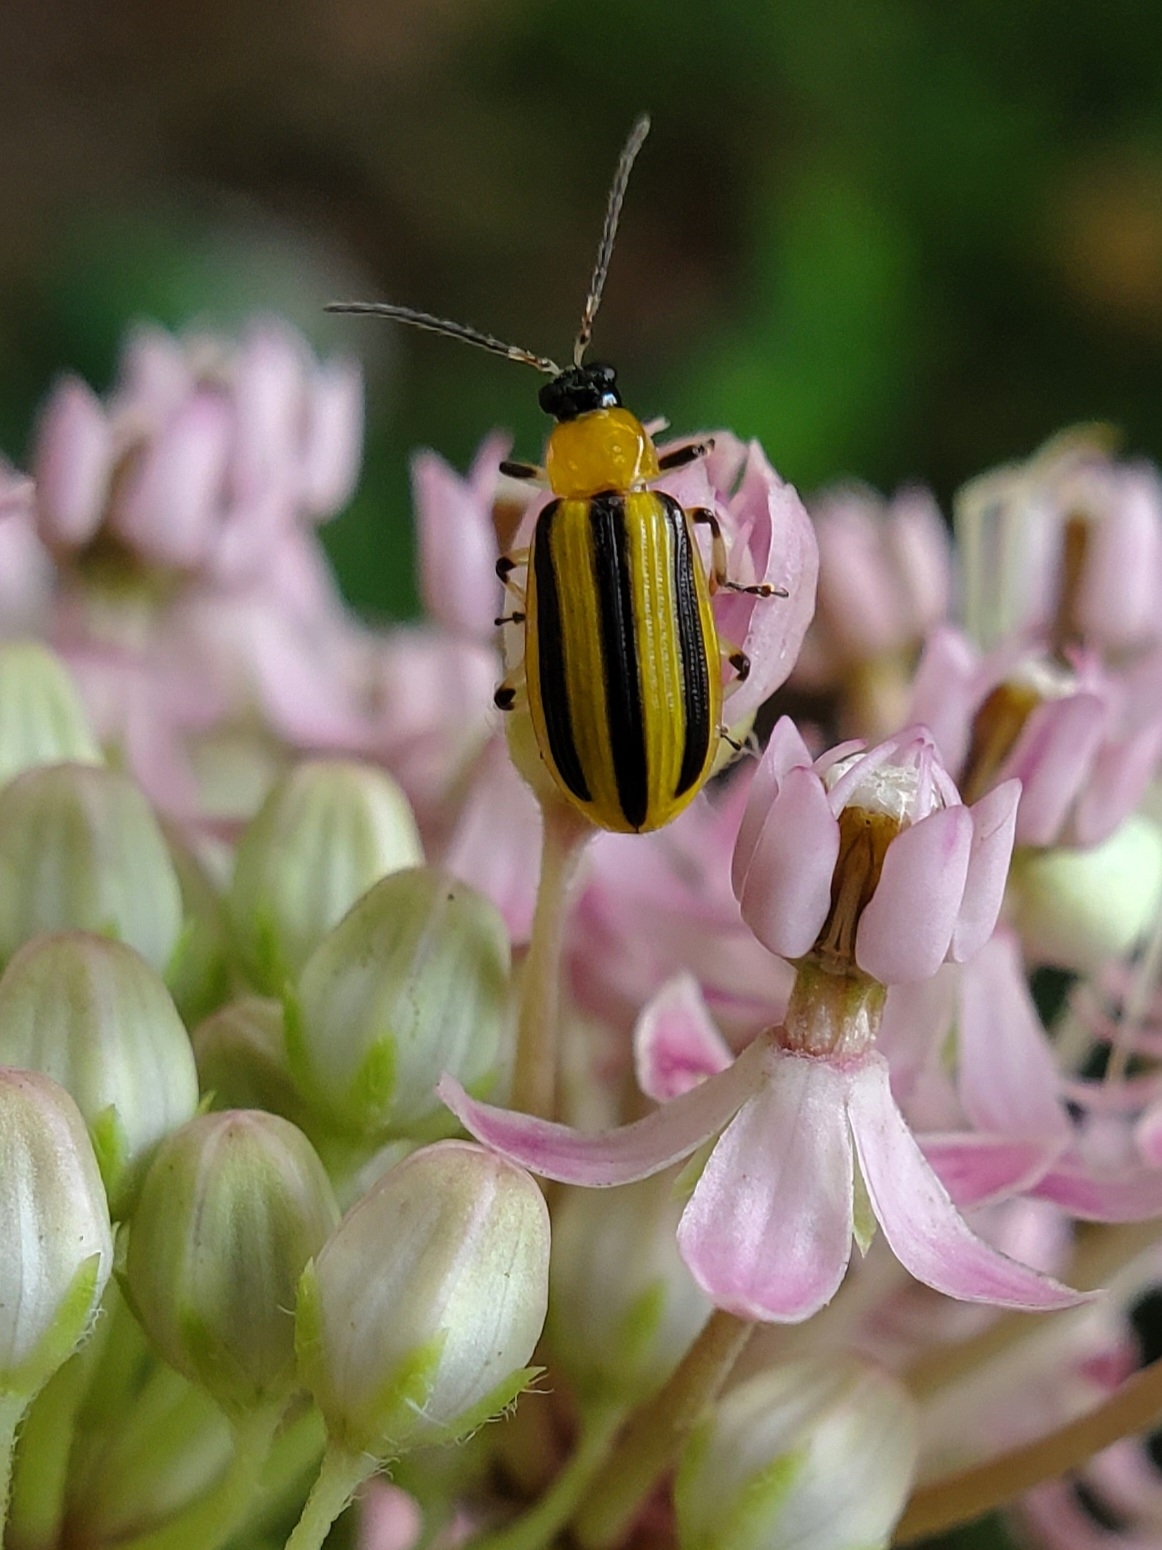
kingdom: Animalia
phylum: Arthropoda
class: Insecta
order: Coleoptera
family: Chrysomelidae
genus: Acalymma
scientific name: Acalymma vittatum
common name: Striped cucumber beetle
